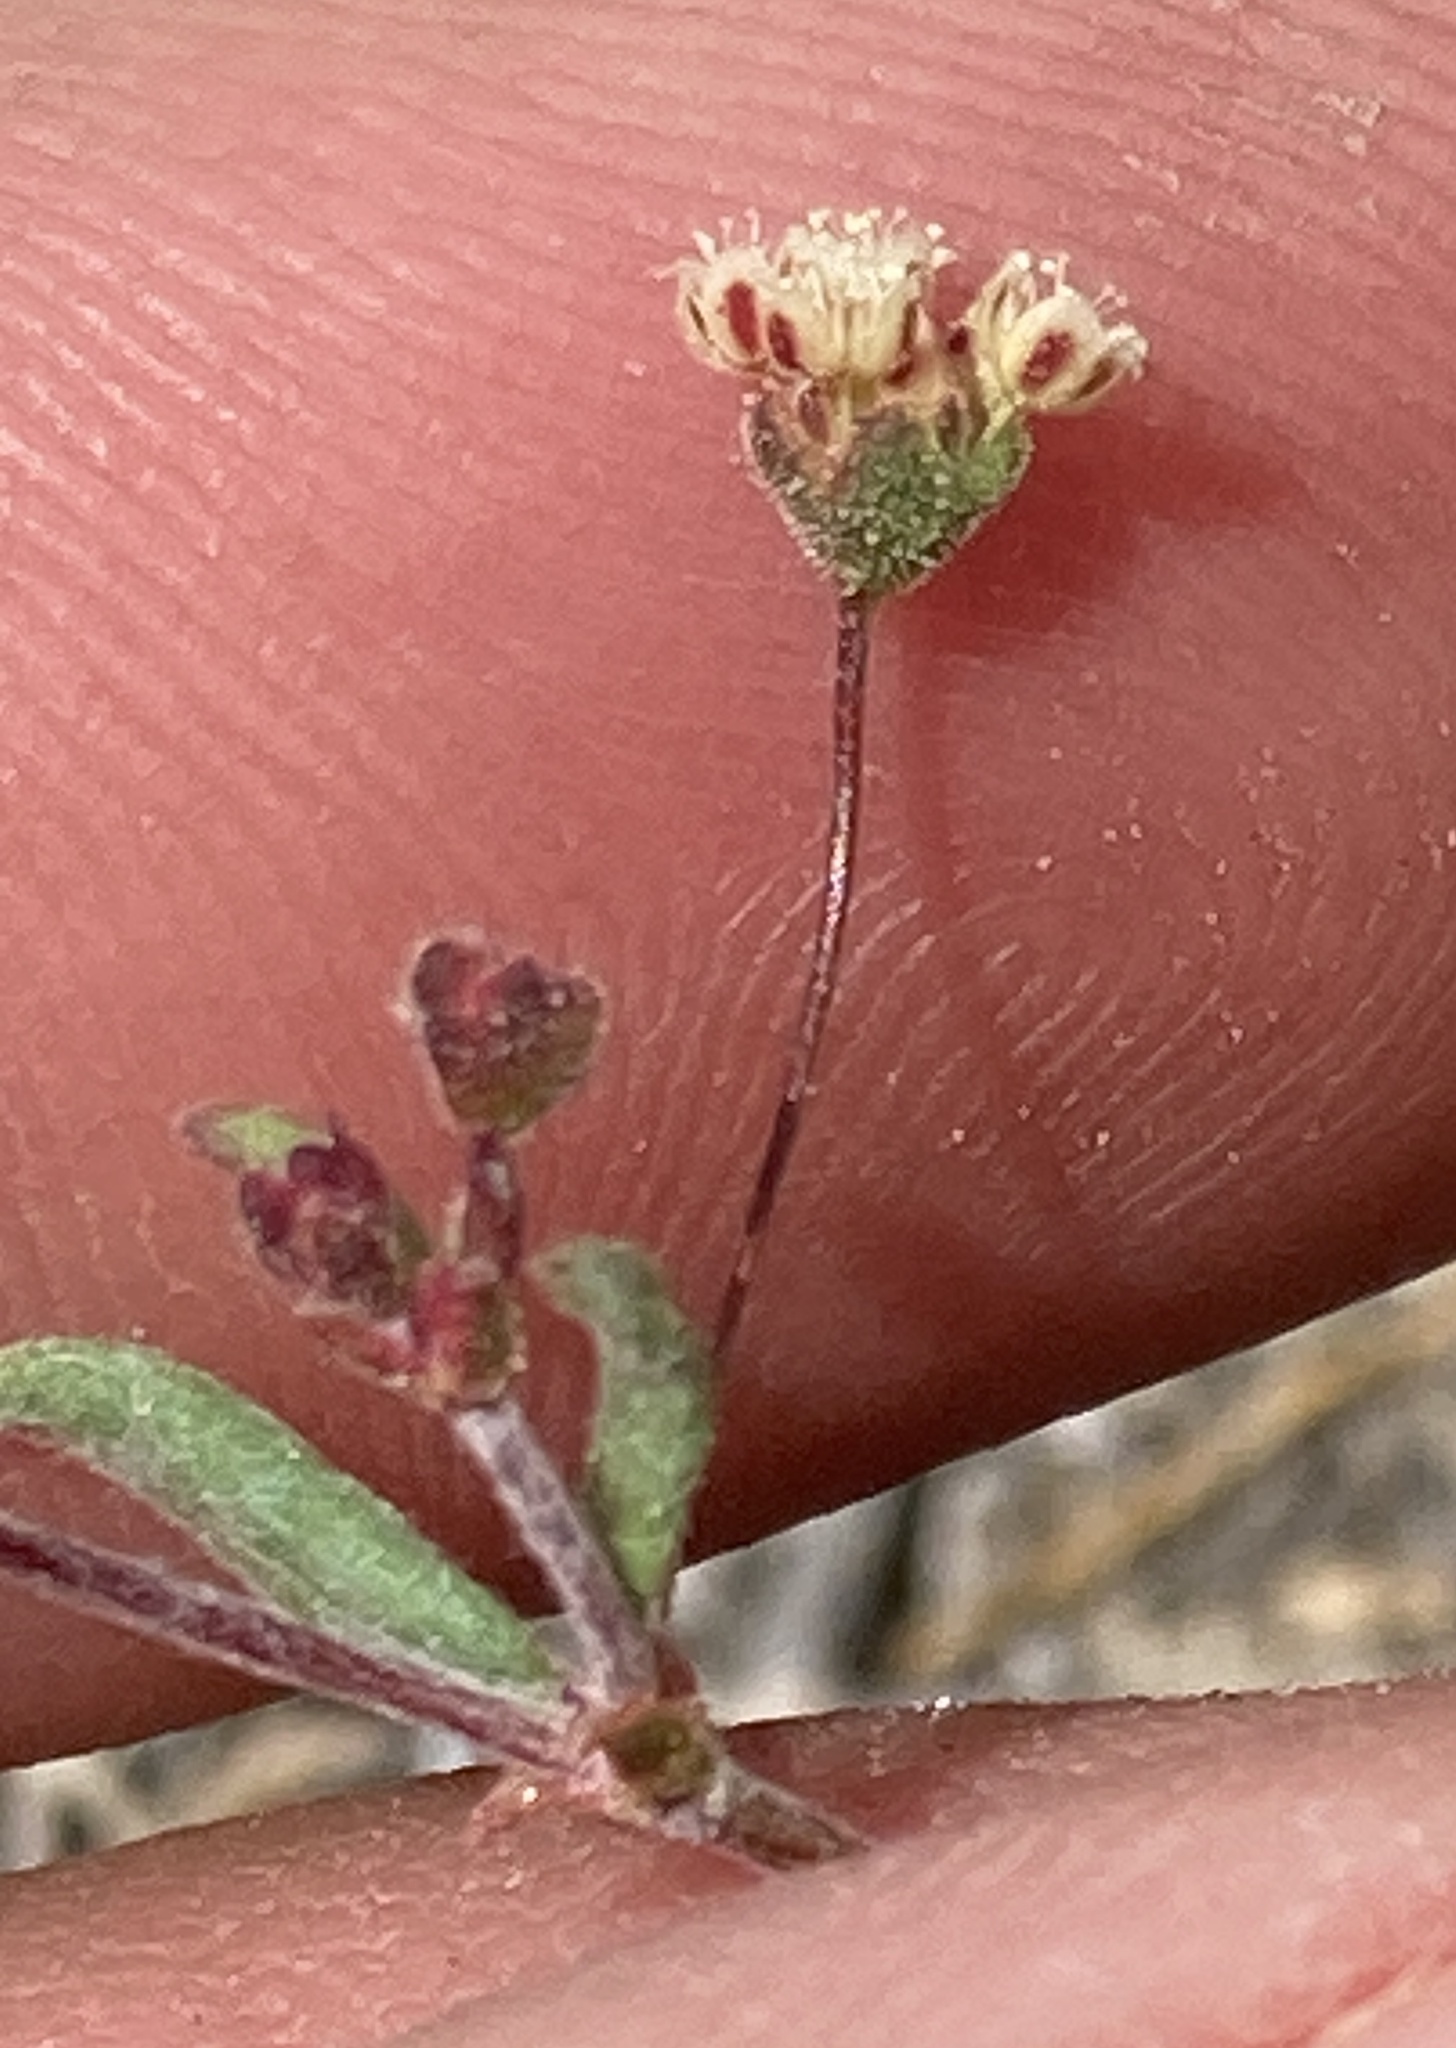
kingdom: Plantae
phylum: Tracheophyta
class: Magnoliopsida
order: Caryophyllales
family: Polygonaceae
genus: Eriogonum
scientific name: Eriogonum maculatum
